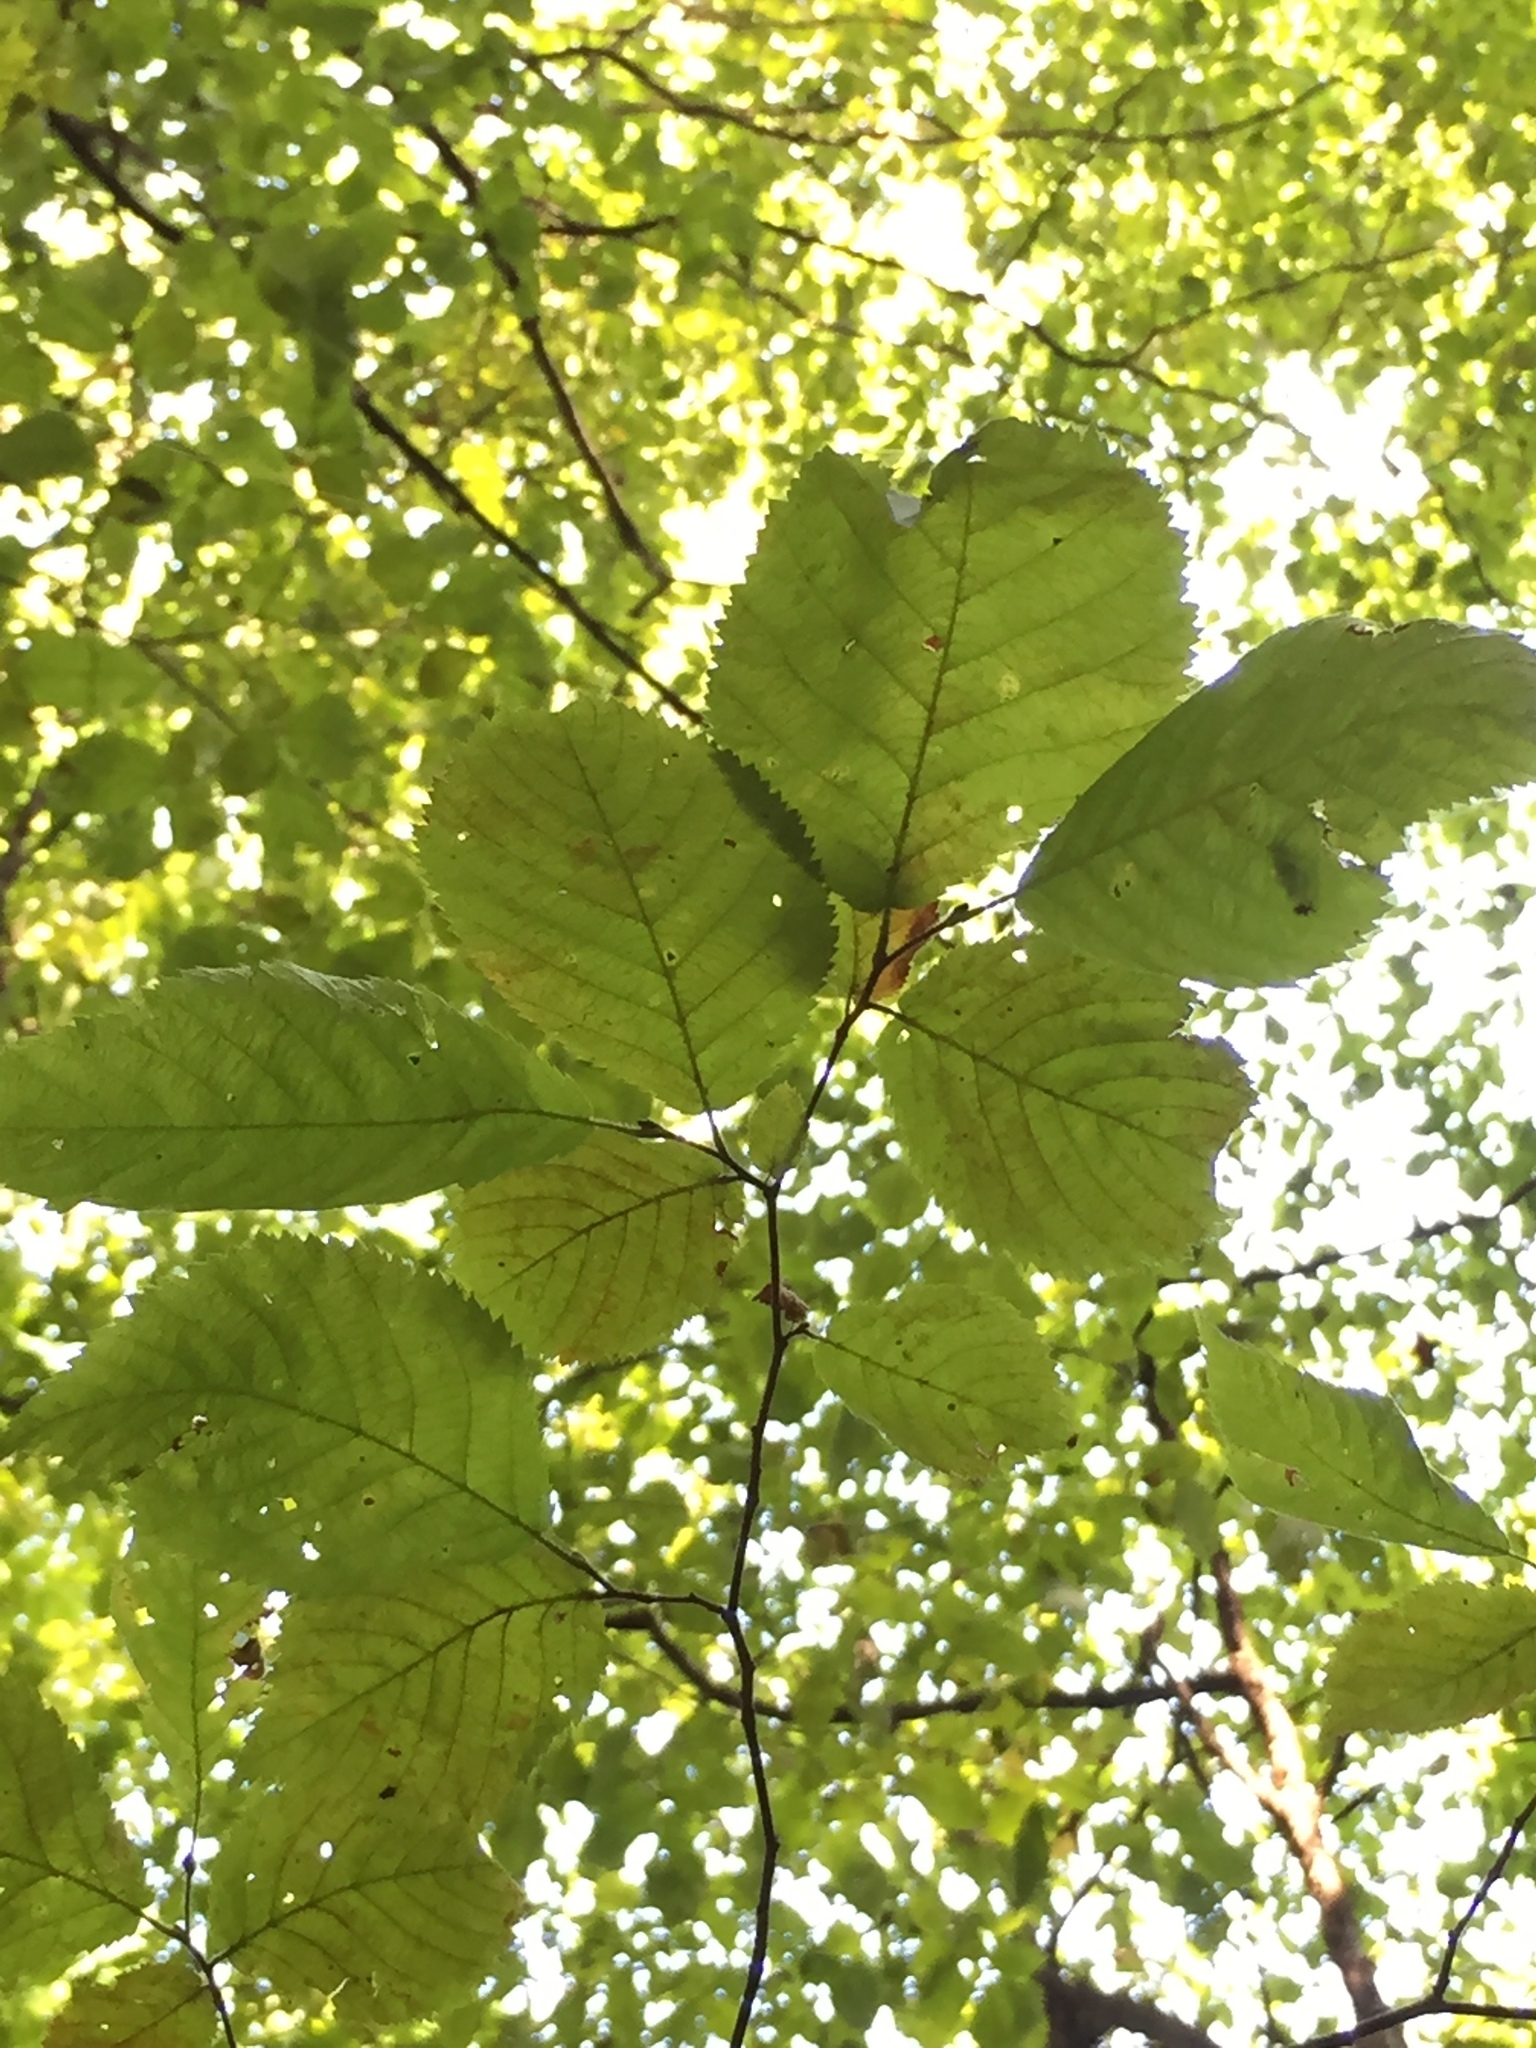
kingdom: Plantae
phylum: Tracheophyta
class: Magnoliopsida
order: Fagales
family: Betulaceae
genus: Ostrya
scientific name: Ostrya virginiana
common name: Ironwood
